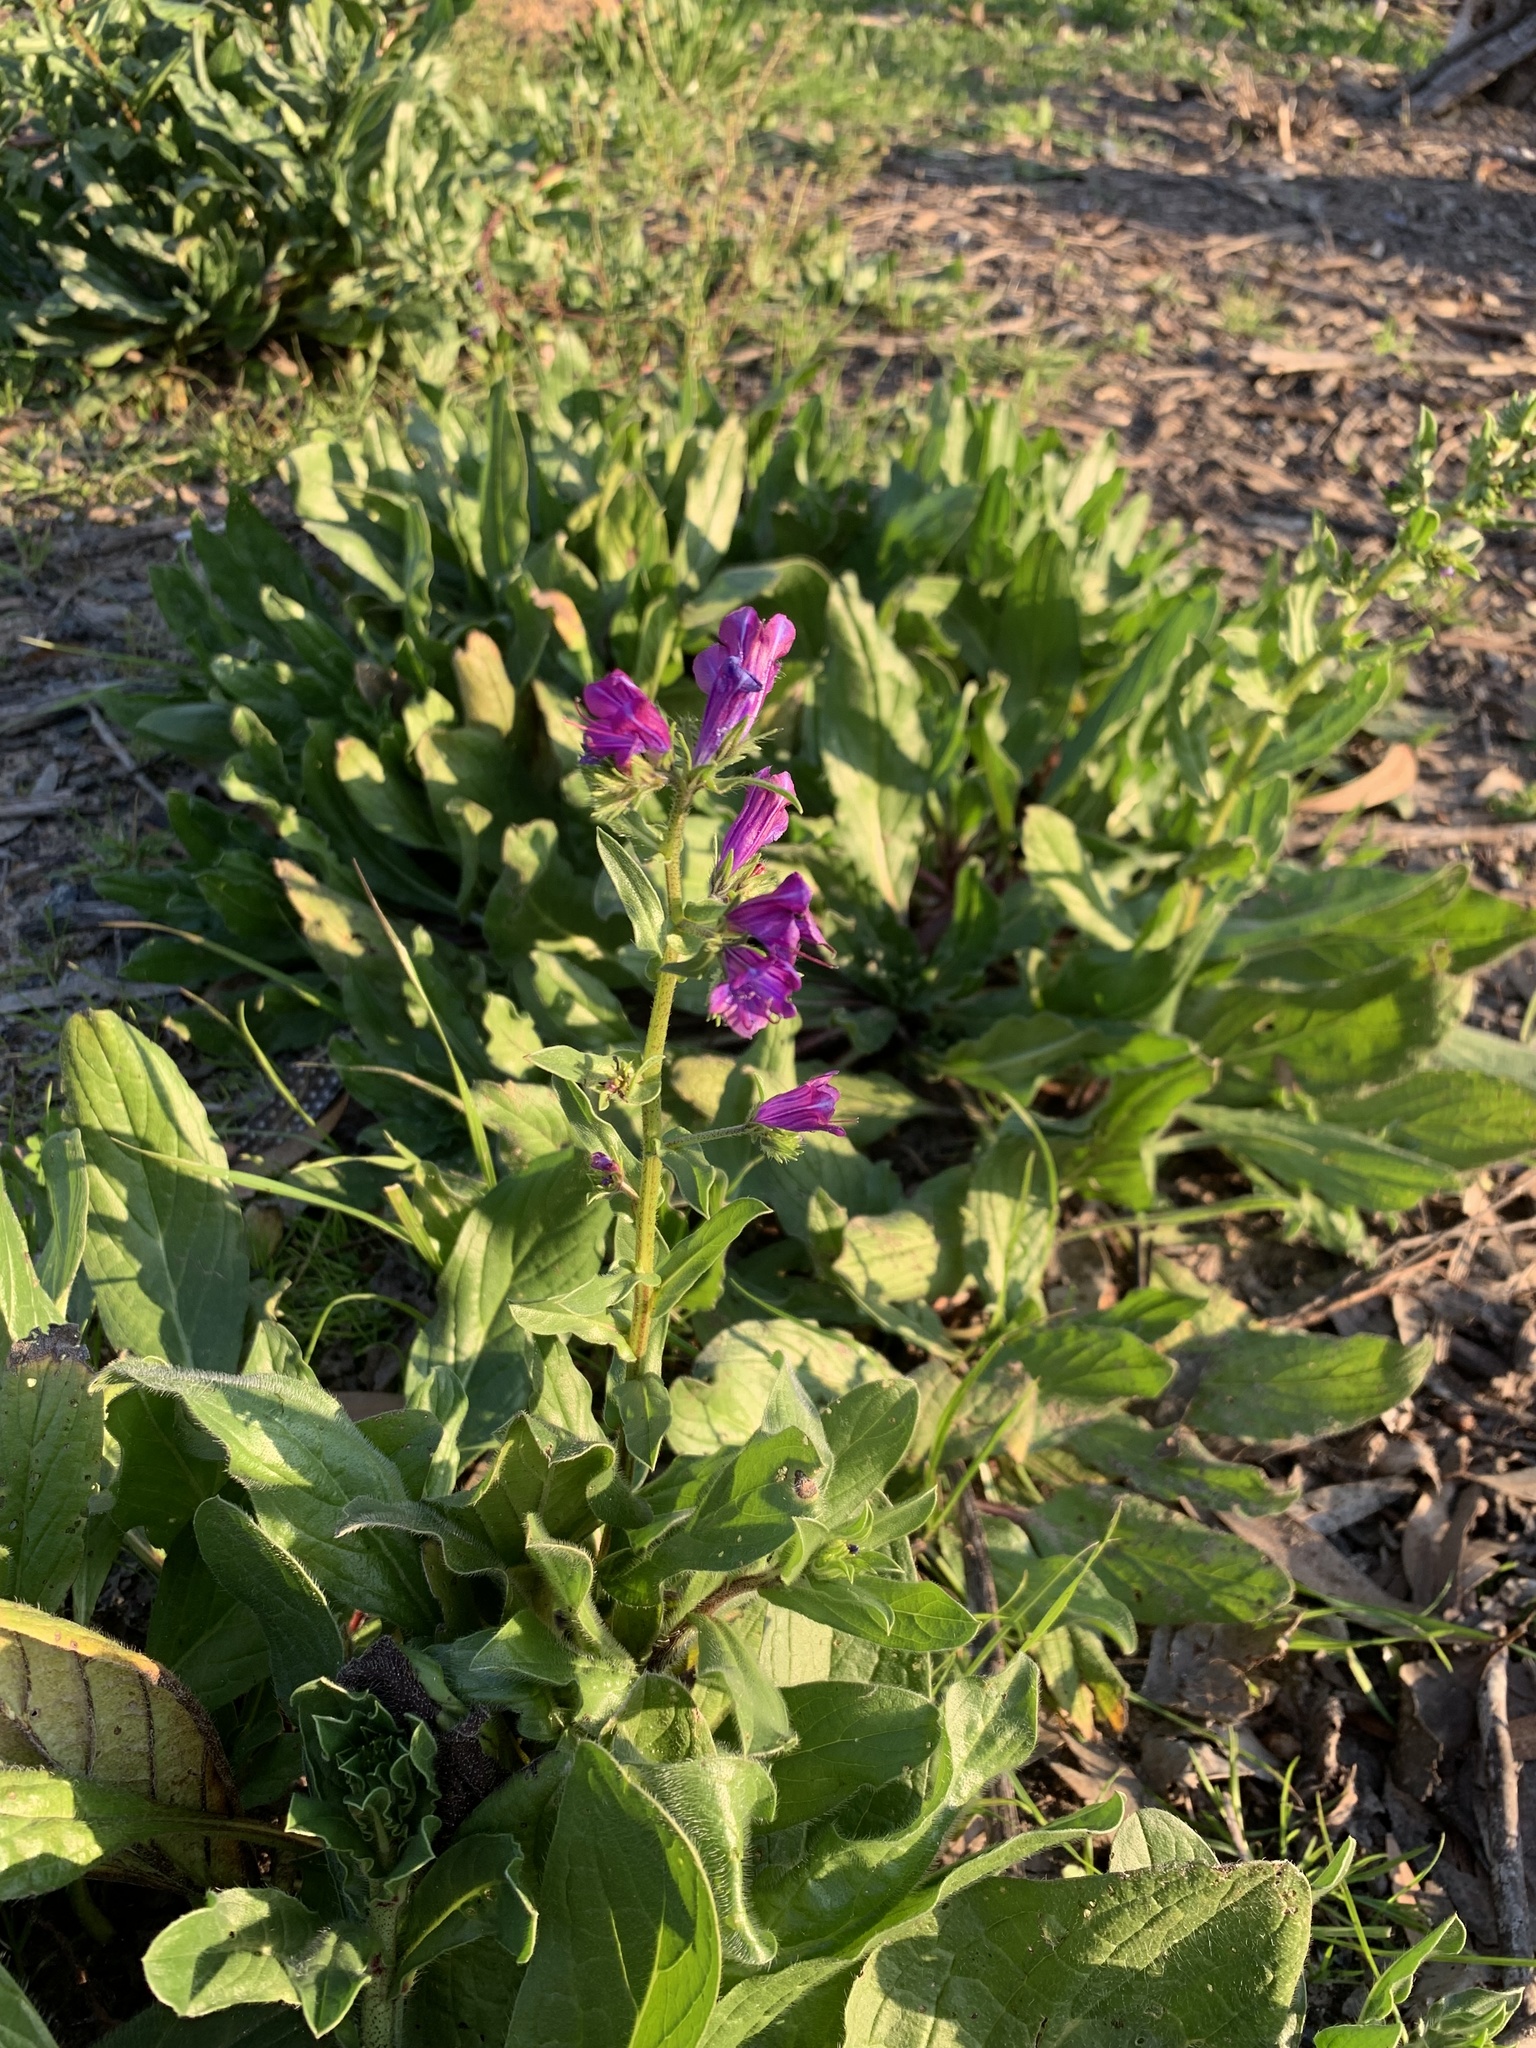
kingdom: Plantae
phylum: Tracheophyta
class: Magnoliopsida
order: Boraginales
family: Boraginaceae
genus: Echium
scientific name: Echium plantagineum
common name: Purple viper's-bugloss
